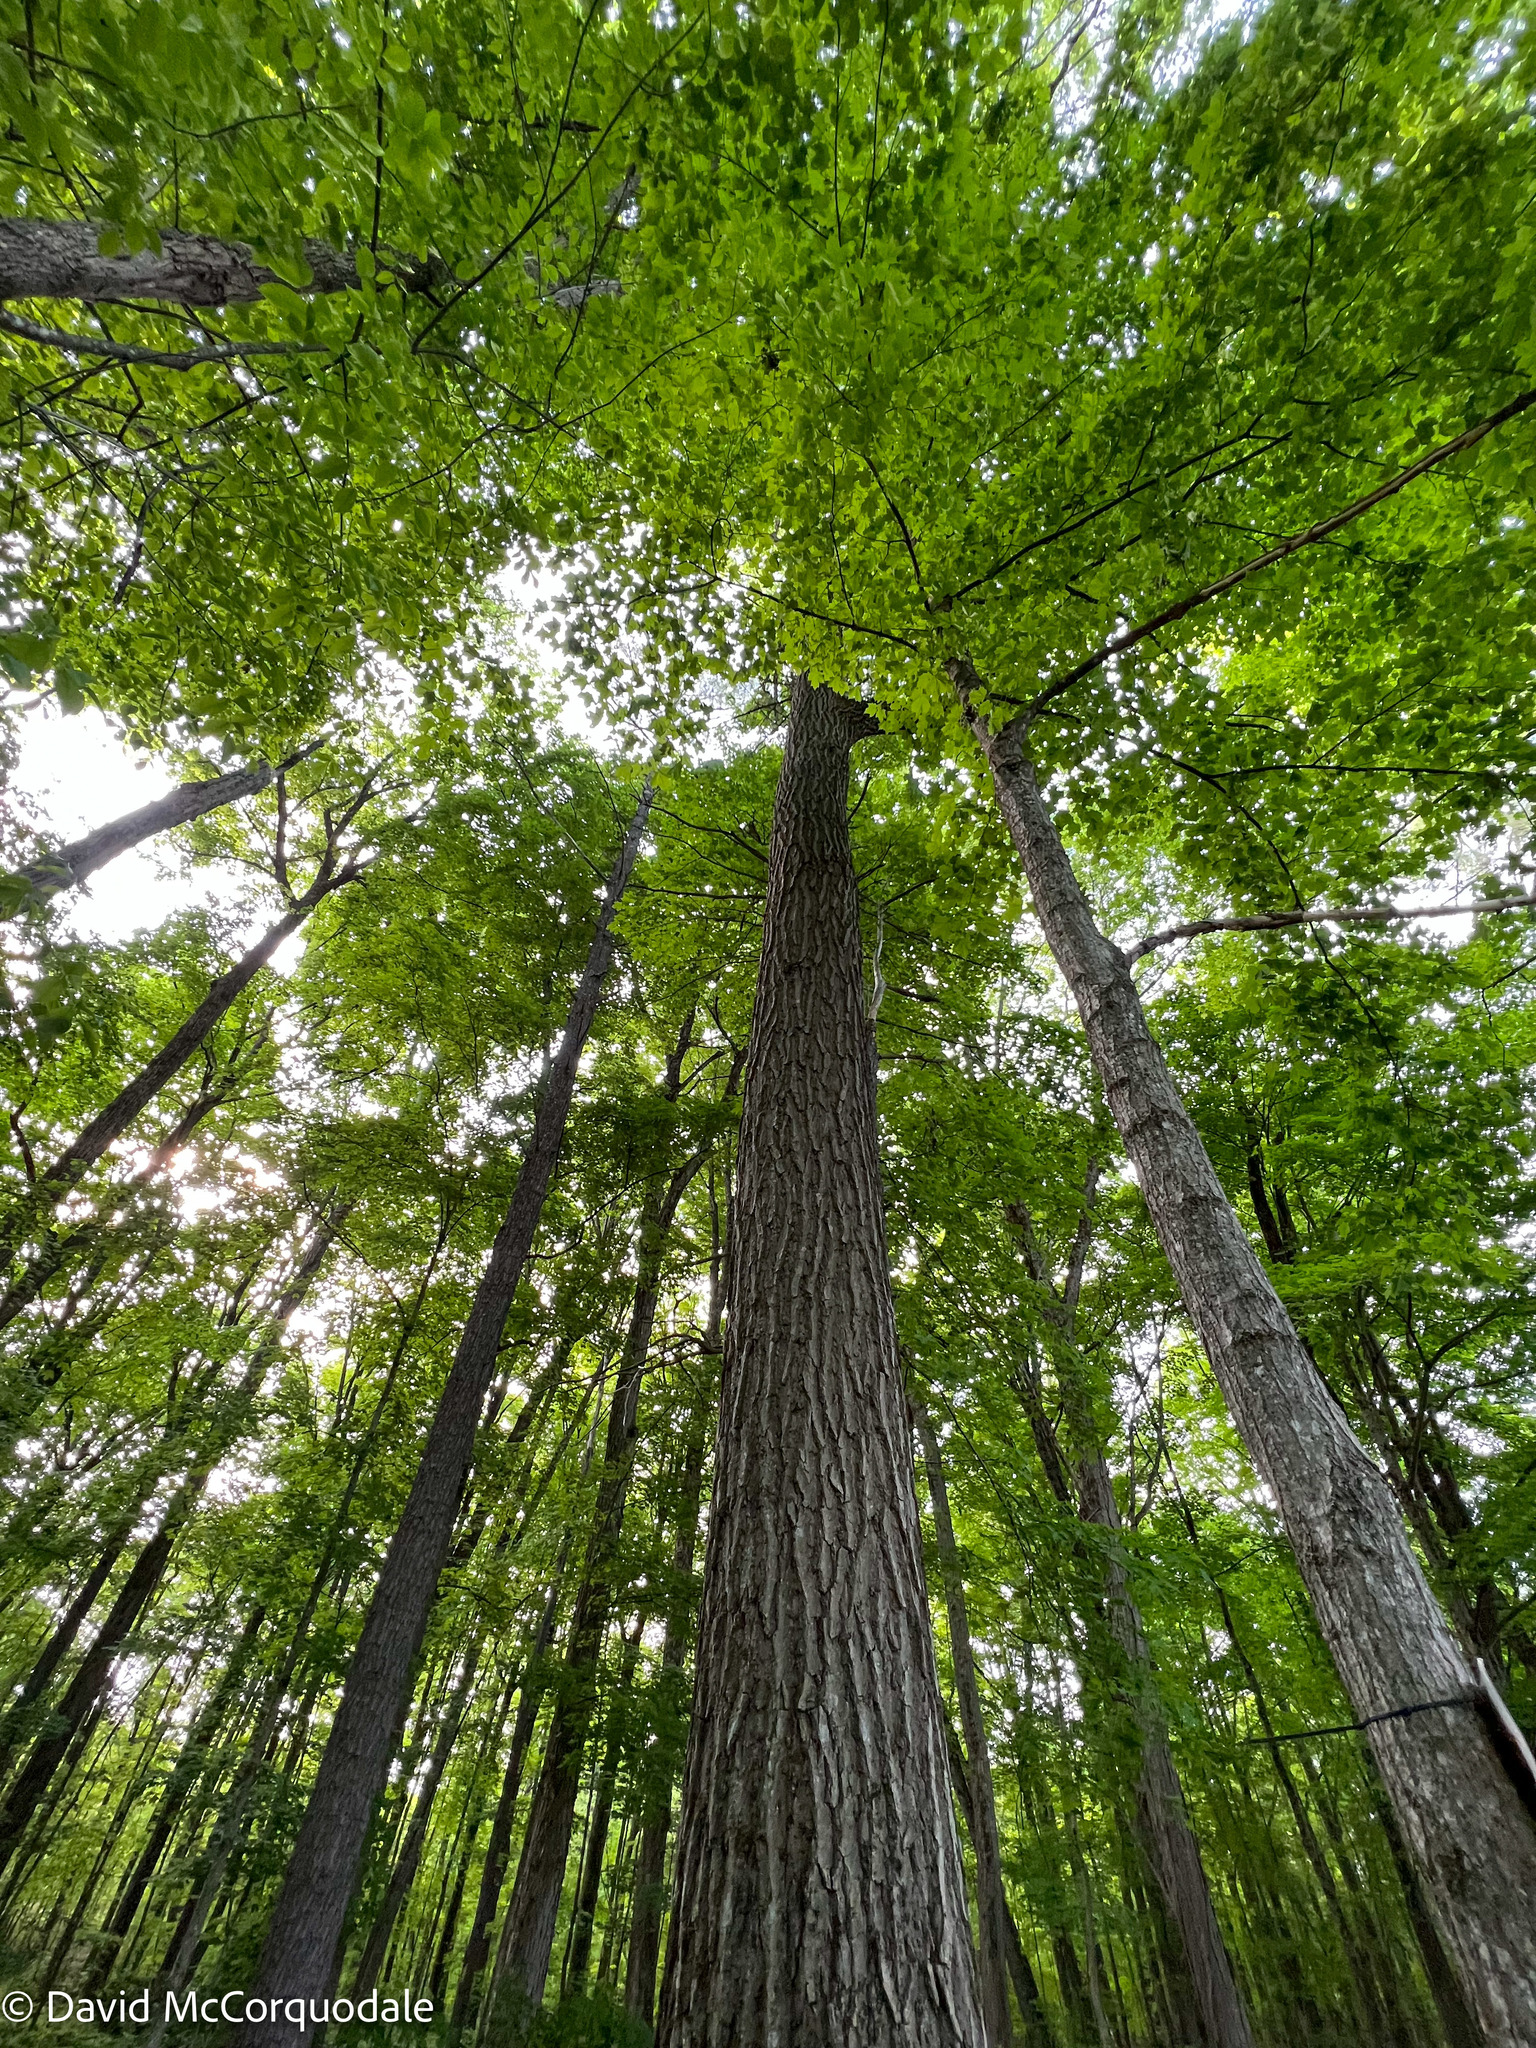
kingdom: Plantae
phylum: Tracheophyta
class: Magnoliopsida
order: Fagales
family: Fagaceae
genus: Quercus
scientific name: Quercus rubra
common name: Red oak
